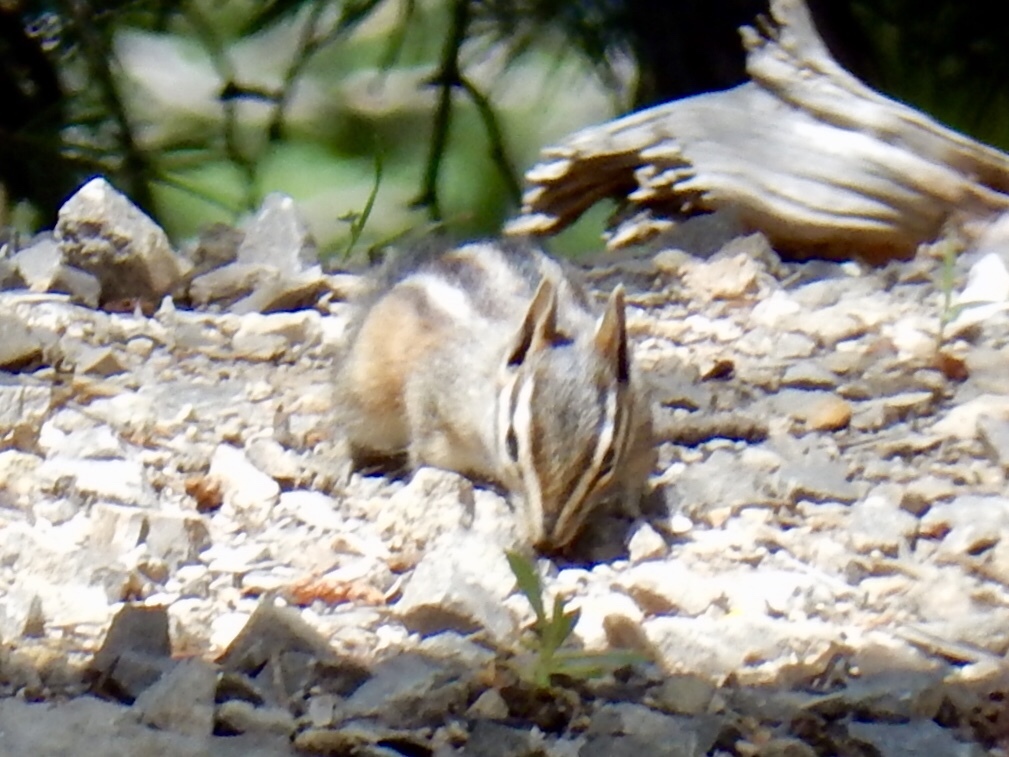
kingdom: Animalia
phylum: Chordata
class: Mammalia
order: Rodentia
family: Sciuridae
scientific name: Sciuridae
